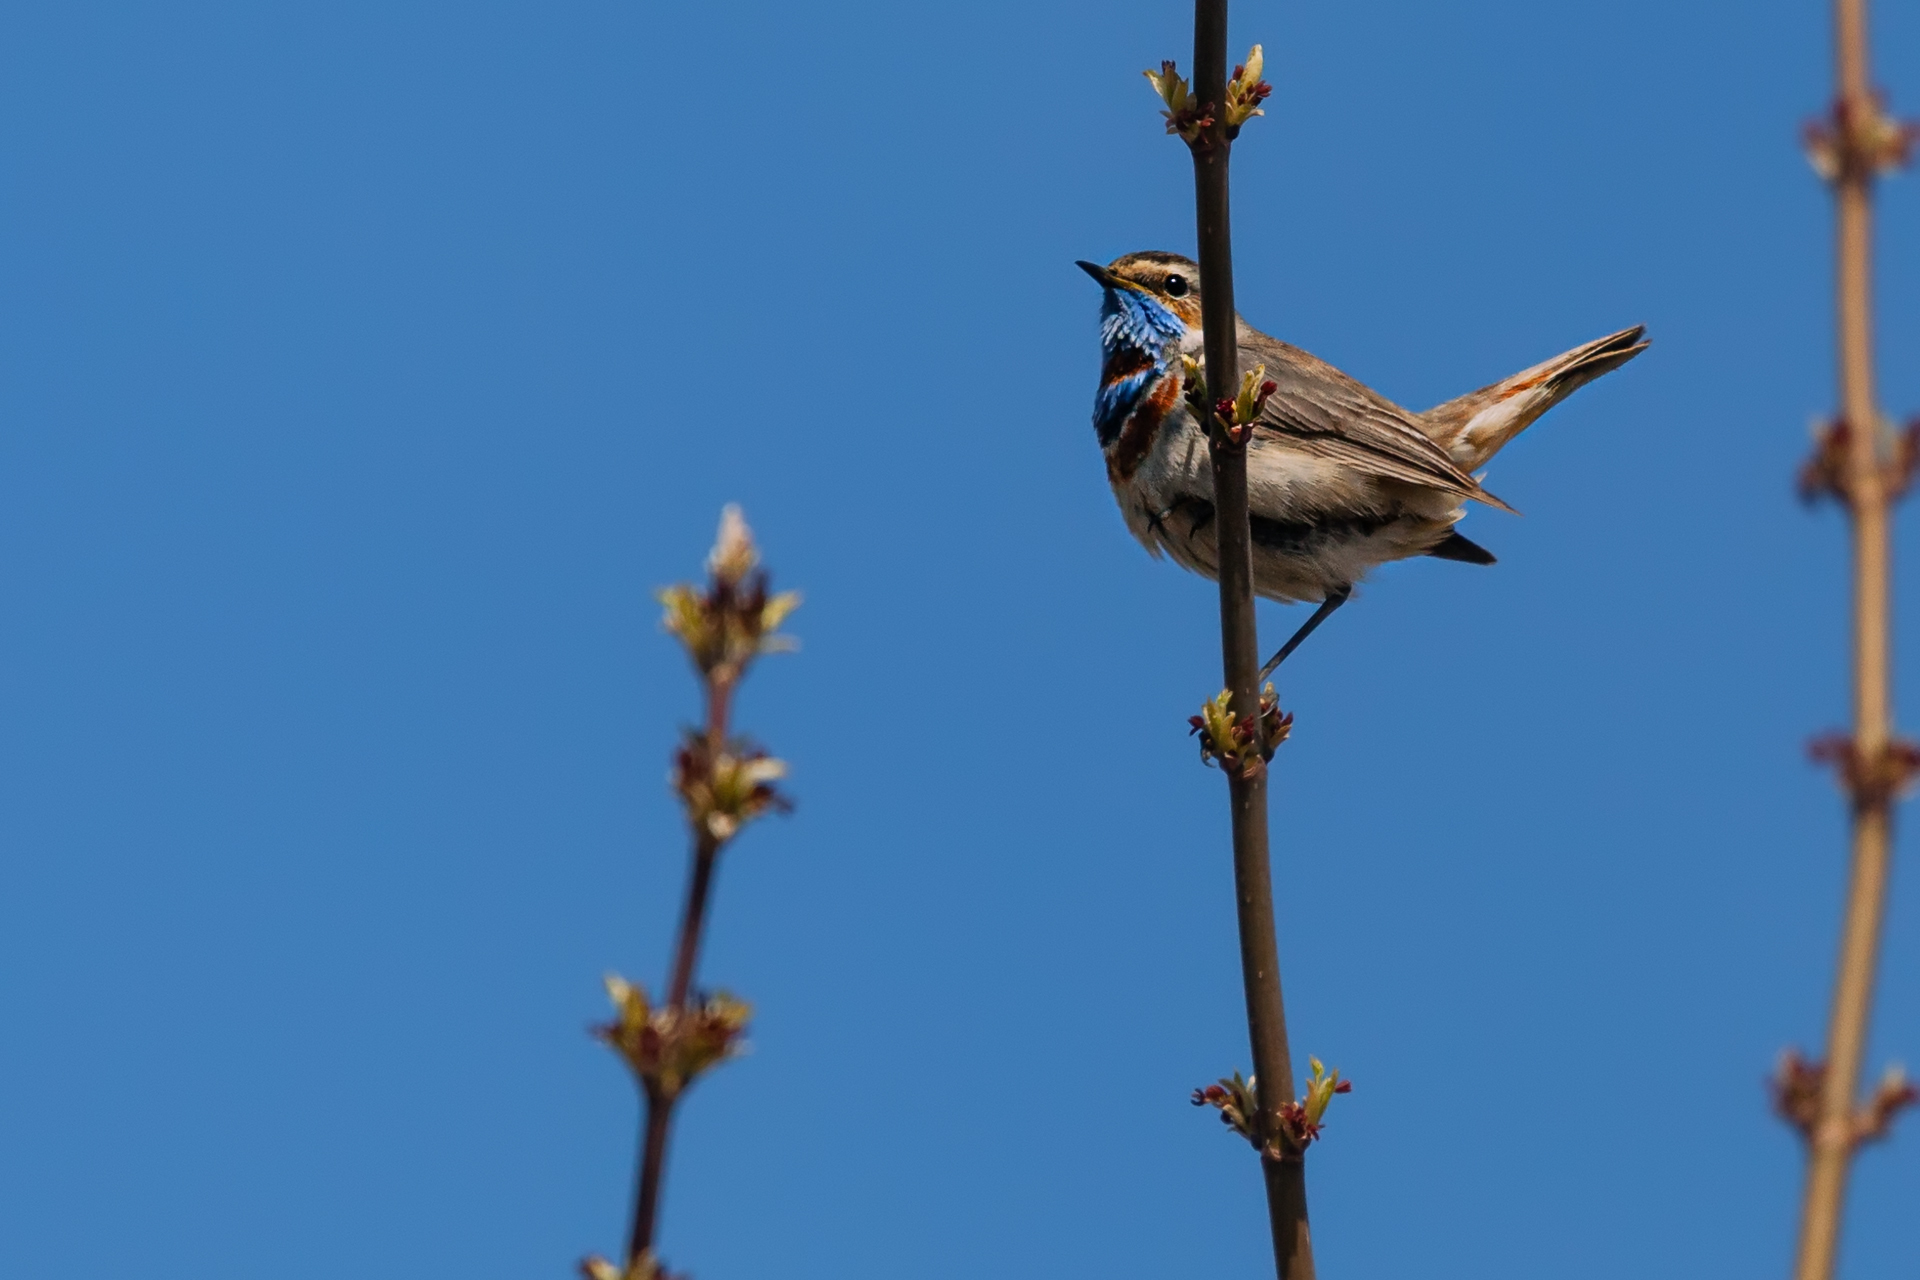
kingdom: Animalia
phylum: Chordata
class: Aves
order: Passeriformes
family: Muscicapidae
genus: Luscinia
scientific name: Luscinia svecica
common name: Bluethroat
